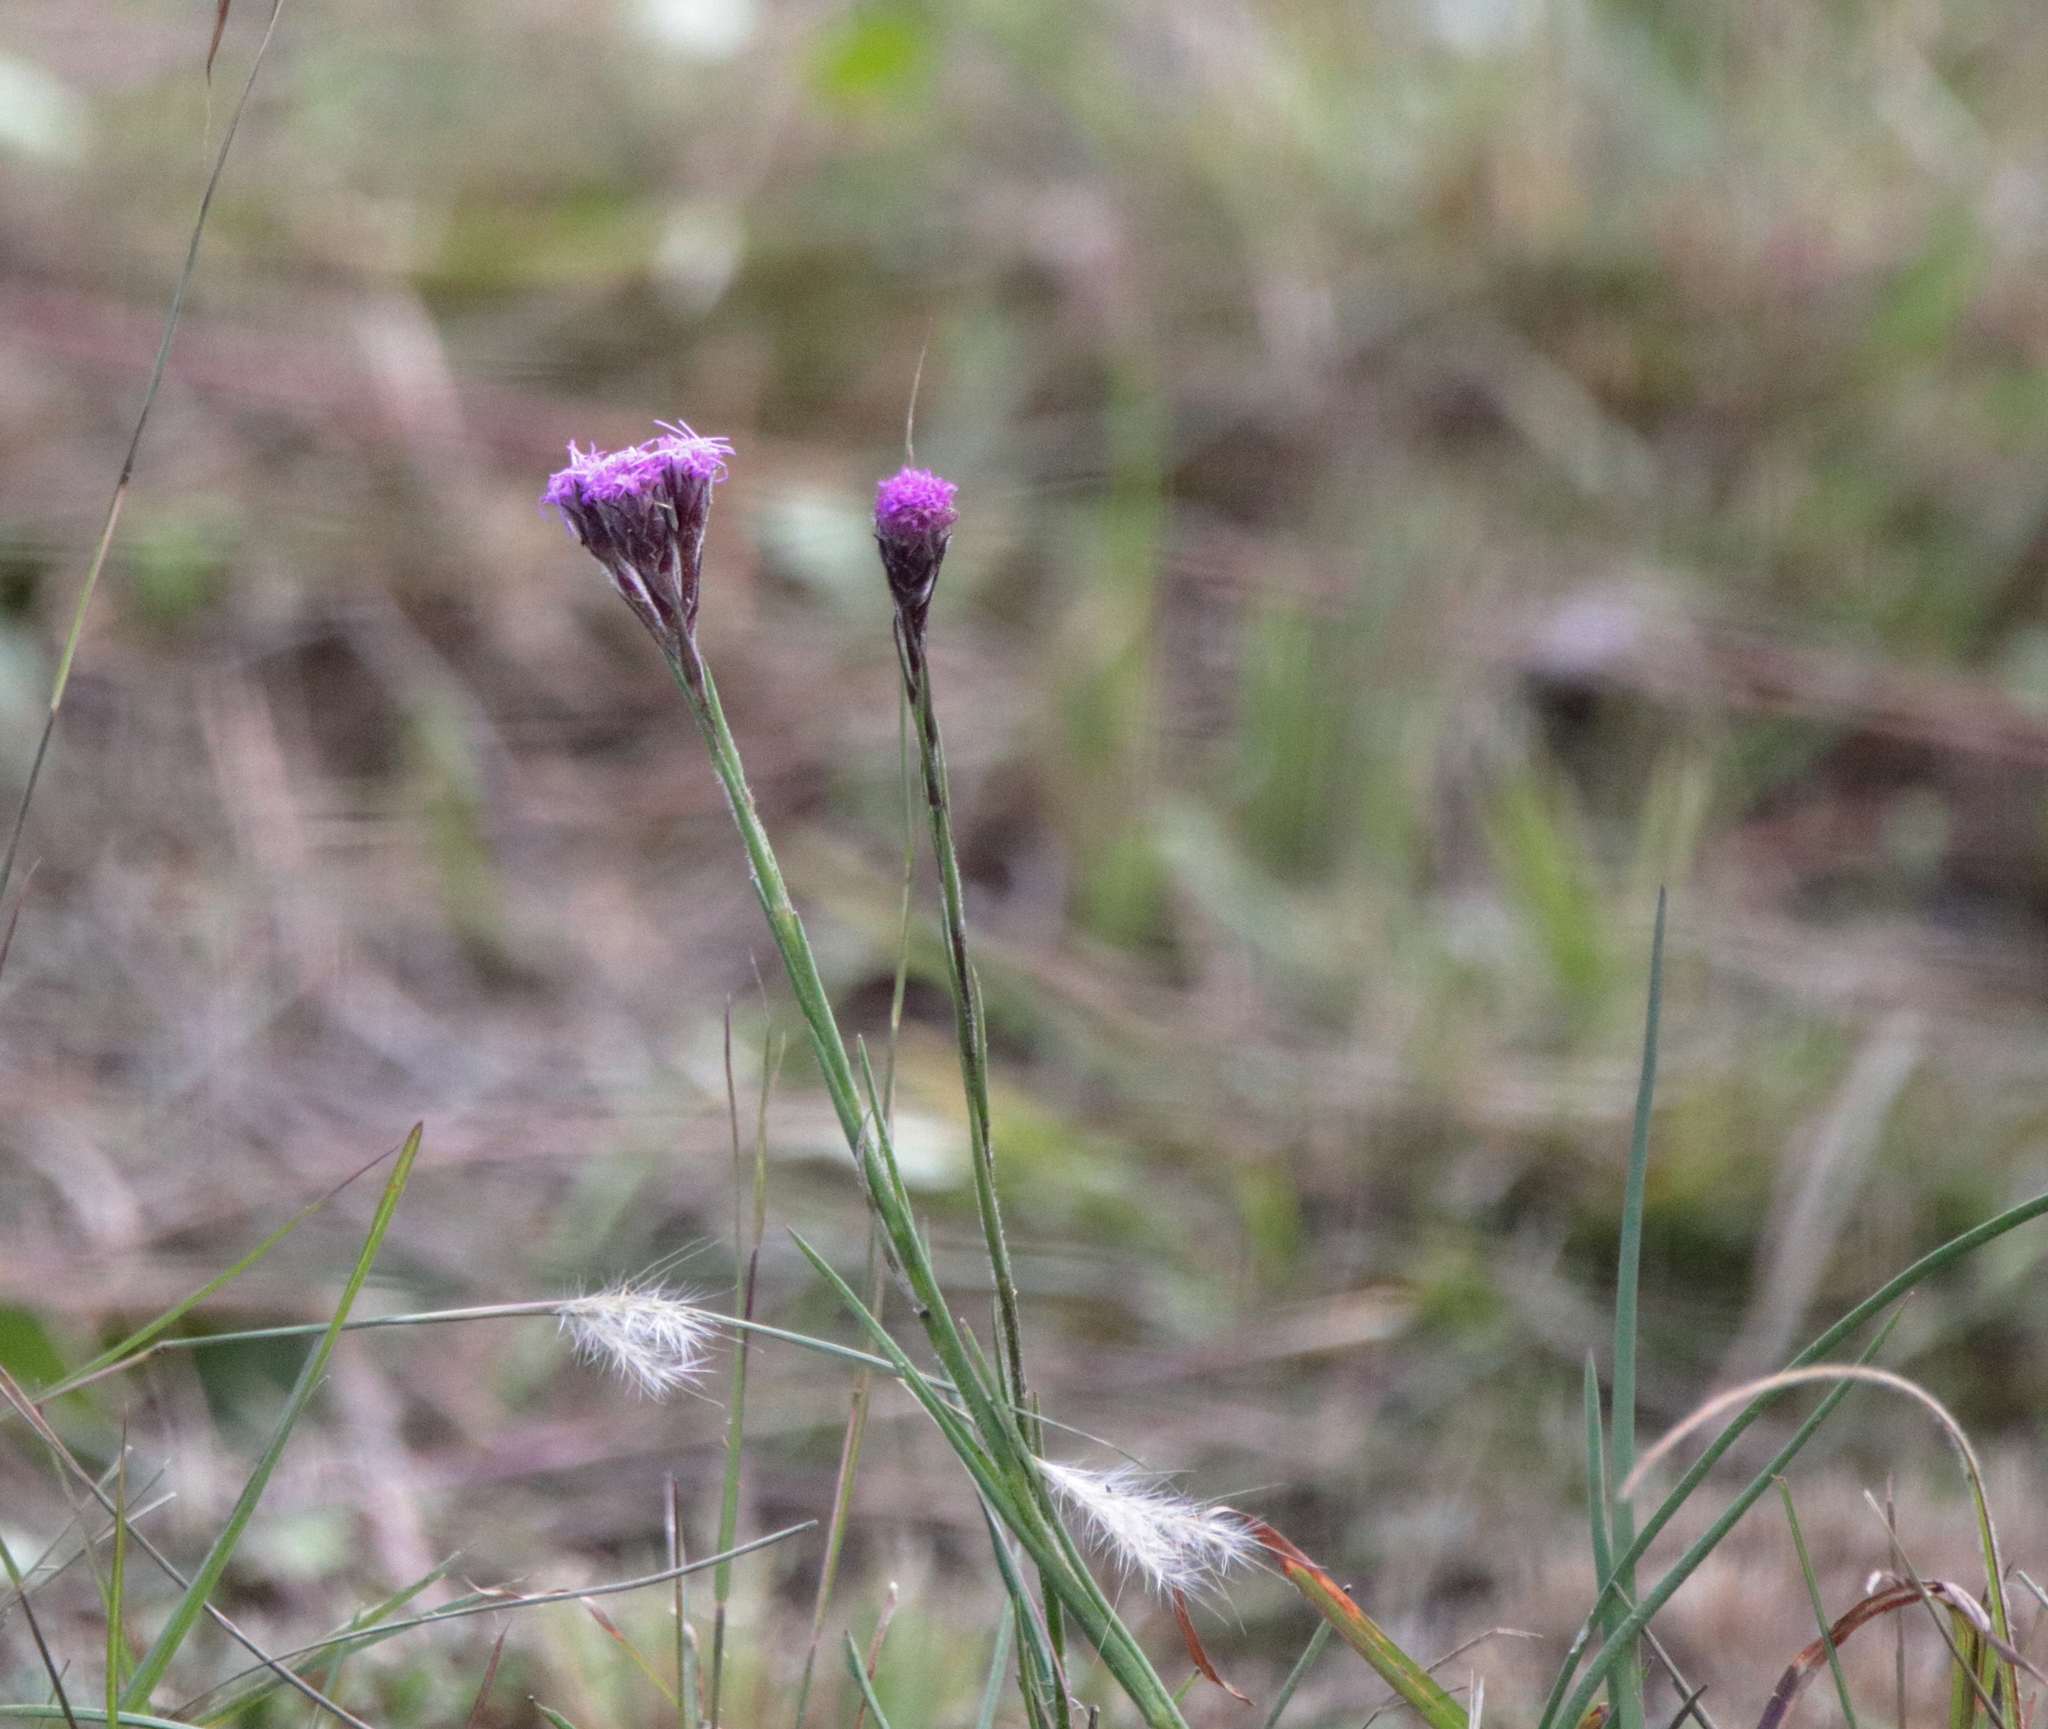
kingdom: Plantae
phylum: Tracheophyta
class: Magnoliopsida
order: Asterales
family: Asteraceae
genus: Carphephorus
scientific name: Carphephorus pseudoliatris
